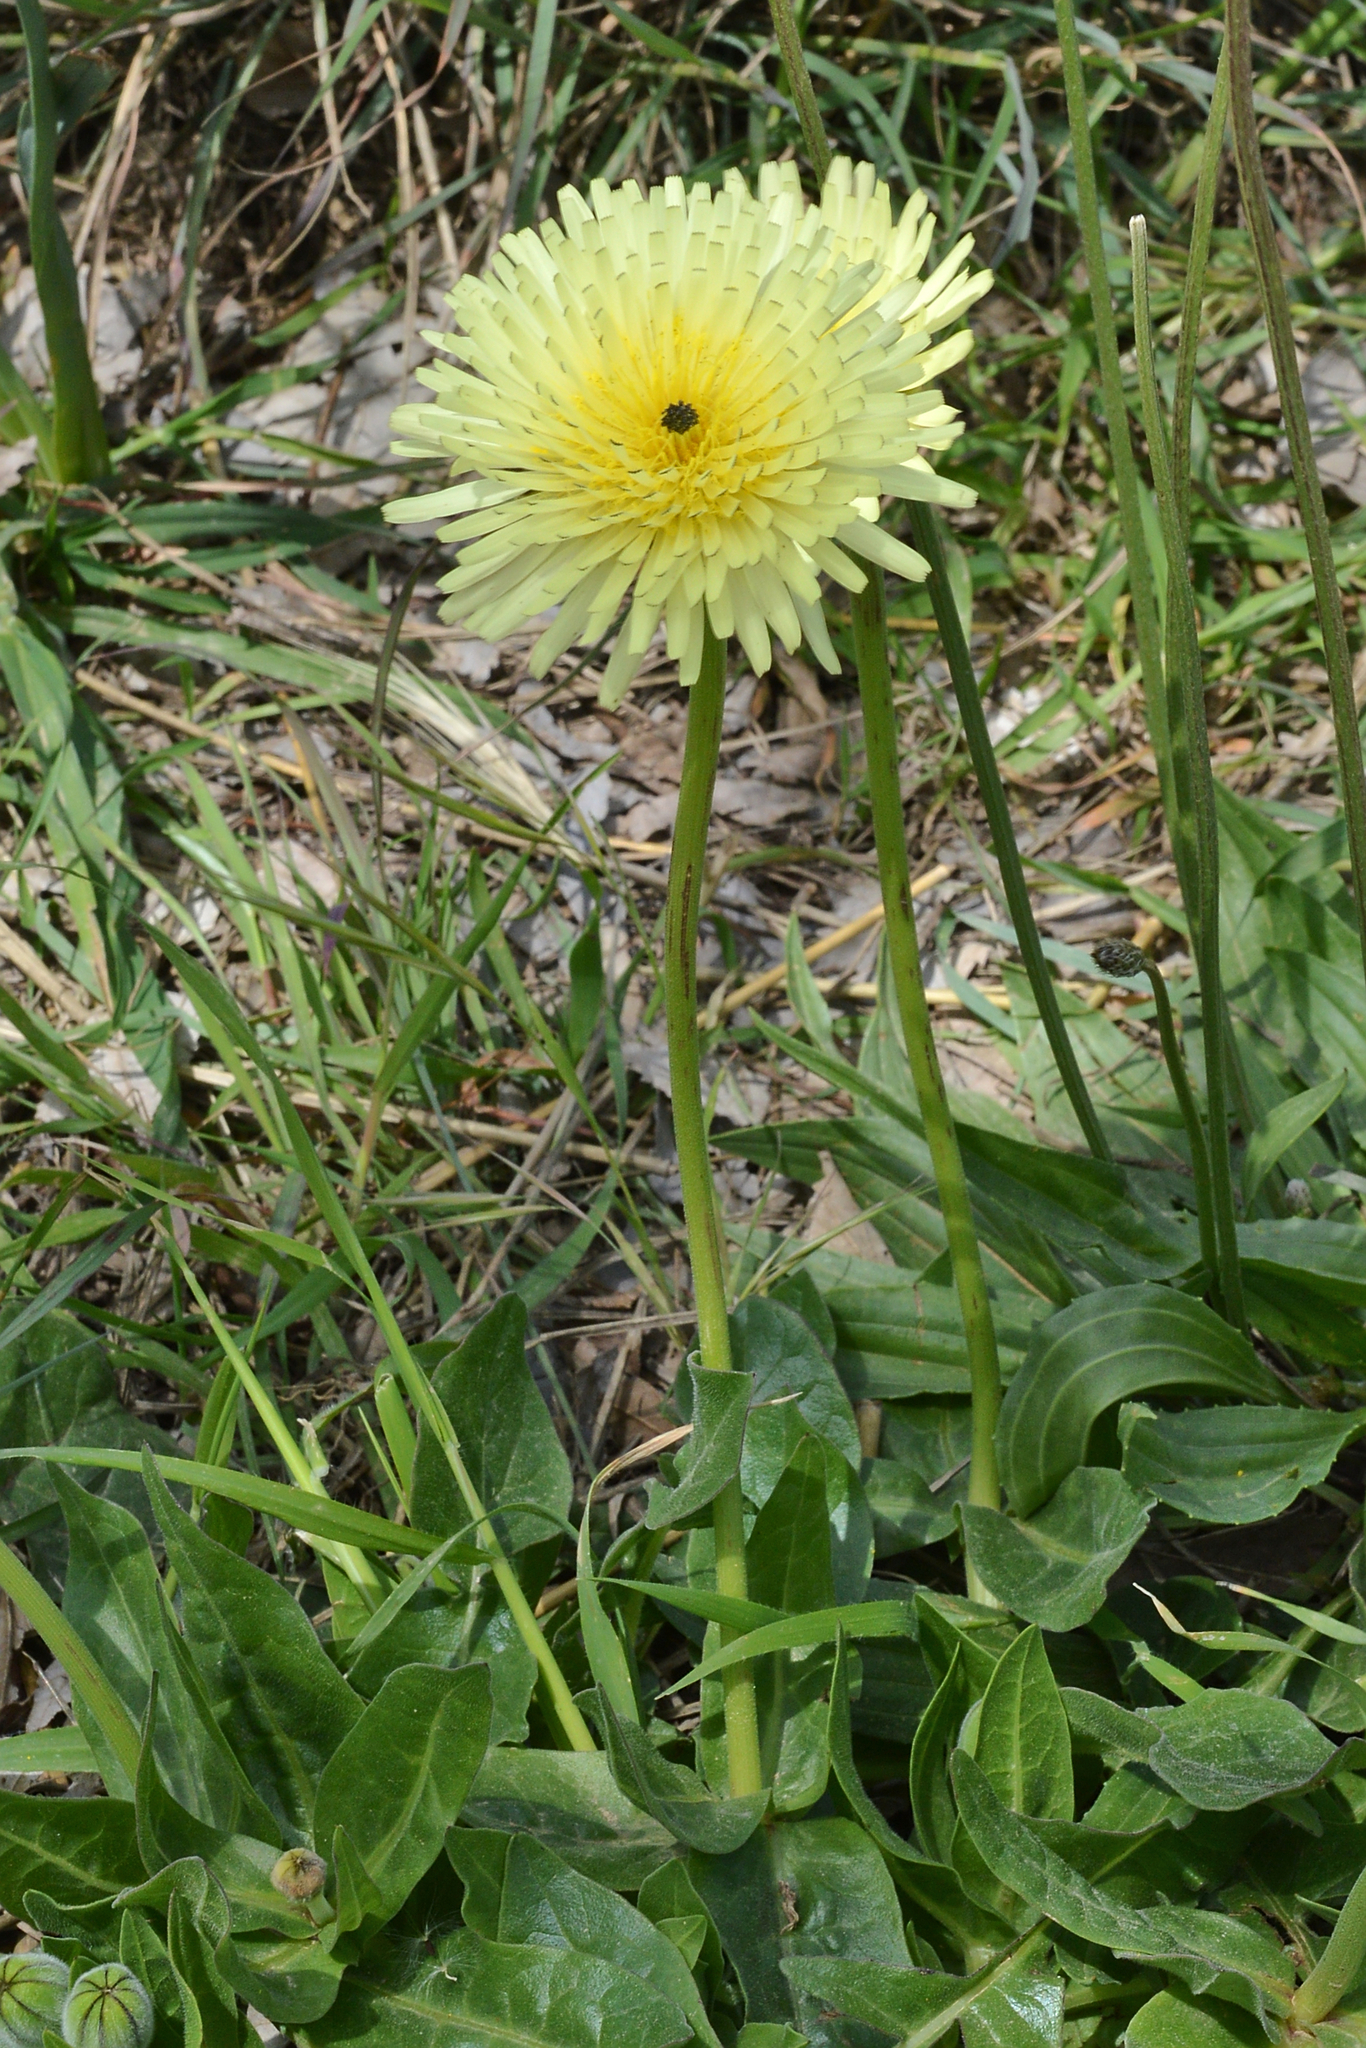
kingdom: Plantae
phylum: Tracheophyta
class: Magnoliopsida
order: Asterales
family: Asteraceae
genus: Urospermum
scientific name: Urospermum dalechampii
